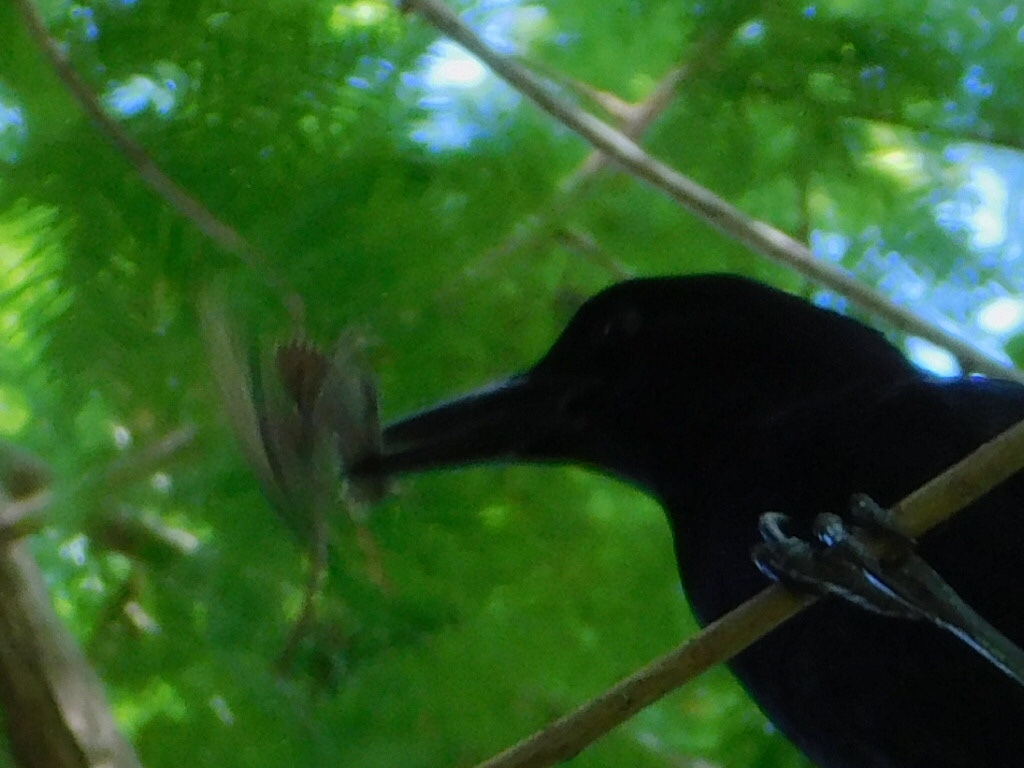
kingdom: Animalia
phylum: Chordata
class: Aves
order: Passeriformes
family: Icteridae
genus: Quiscalus
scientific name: Quiscalus major
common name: Boat-tailed grackle
